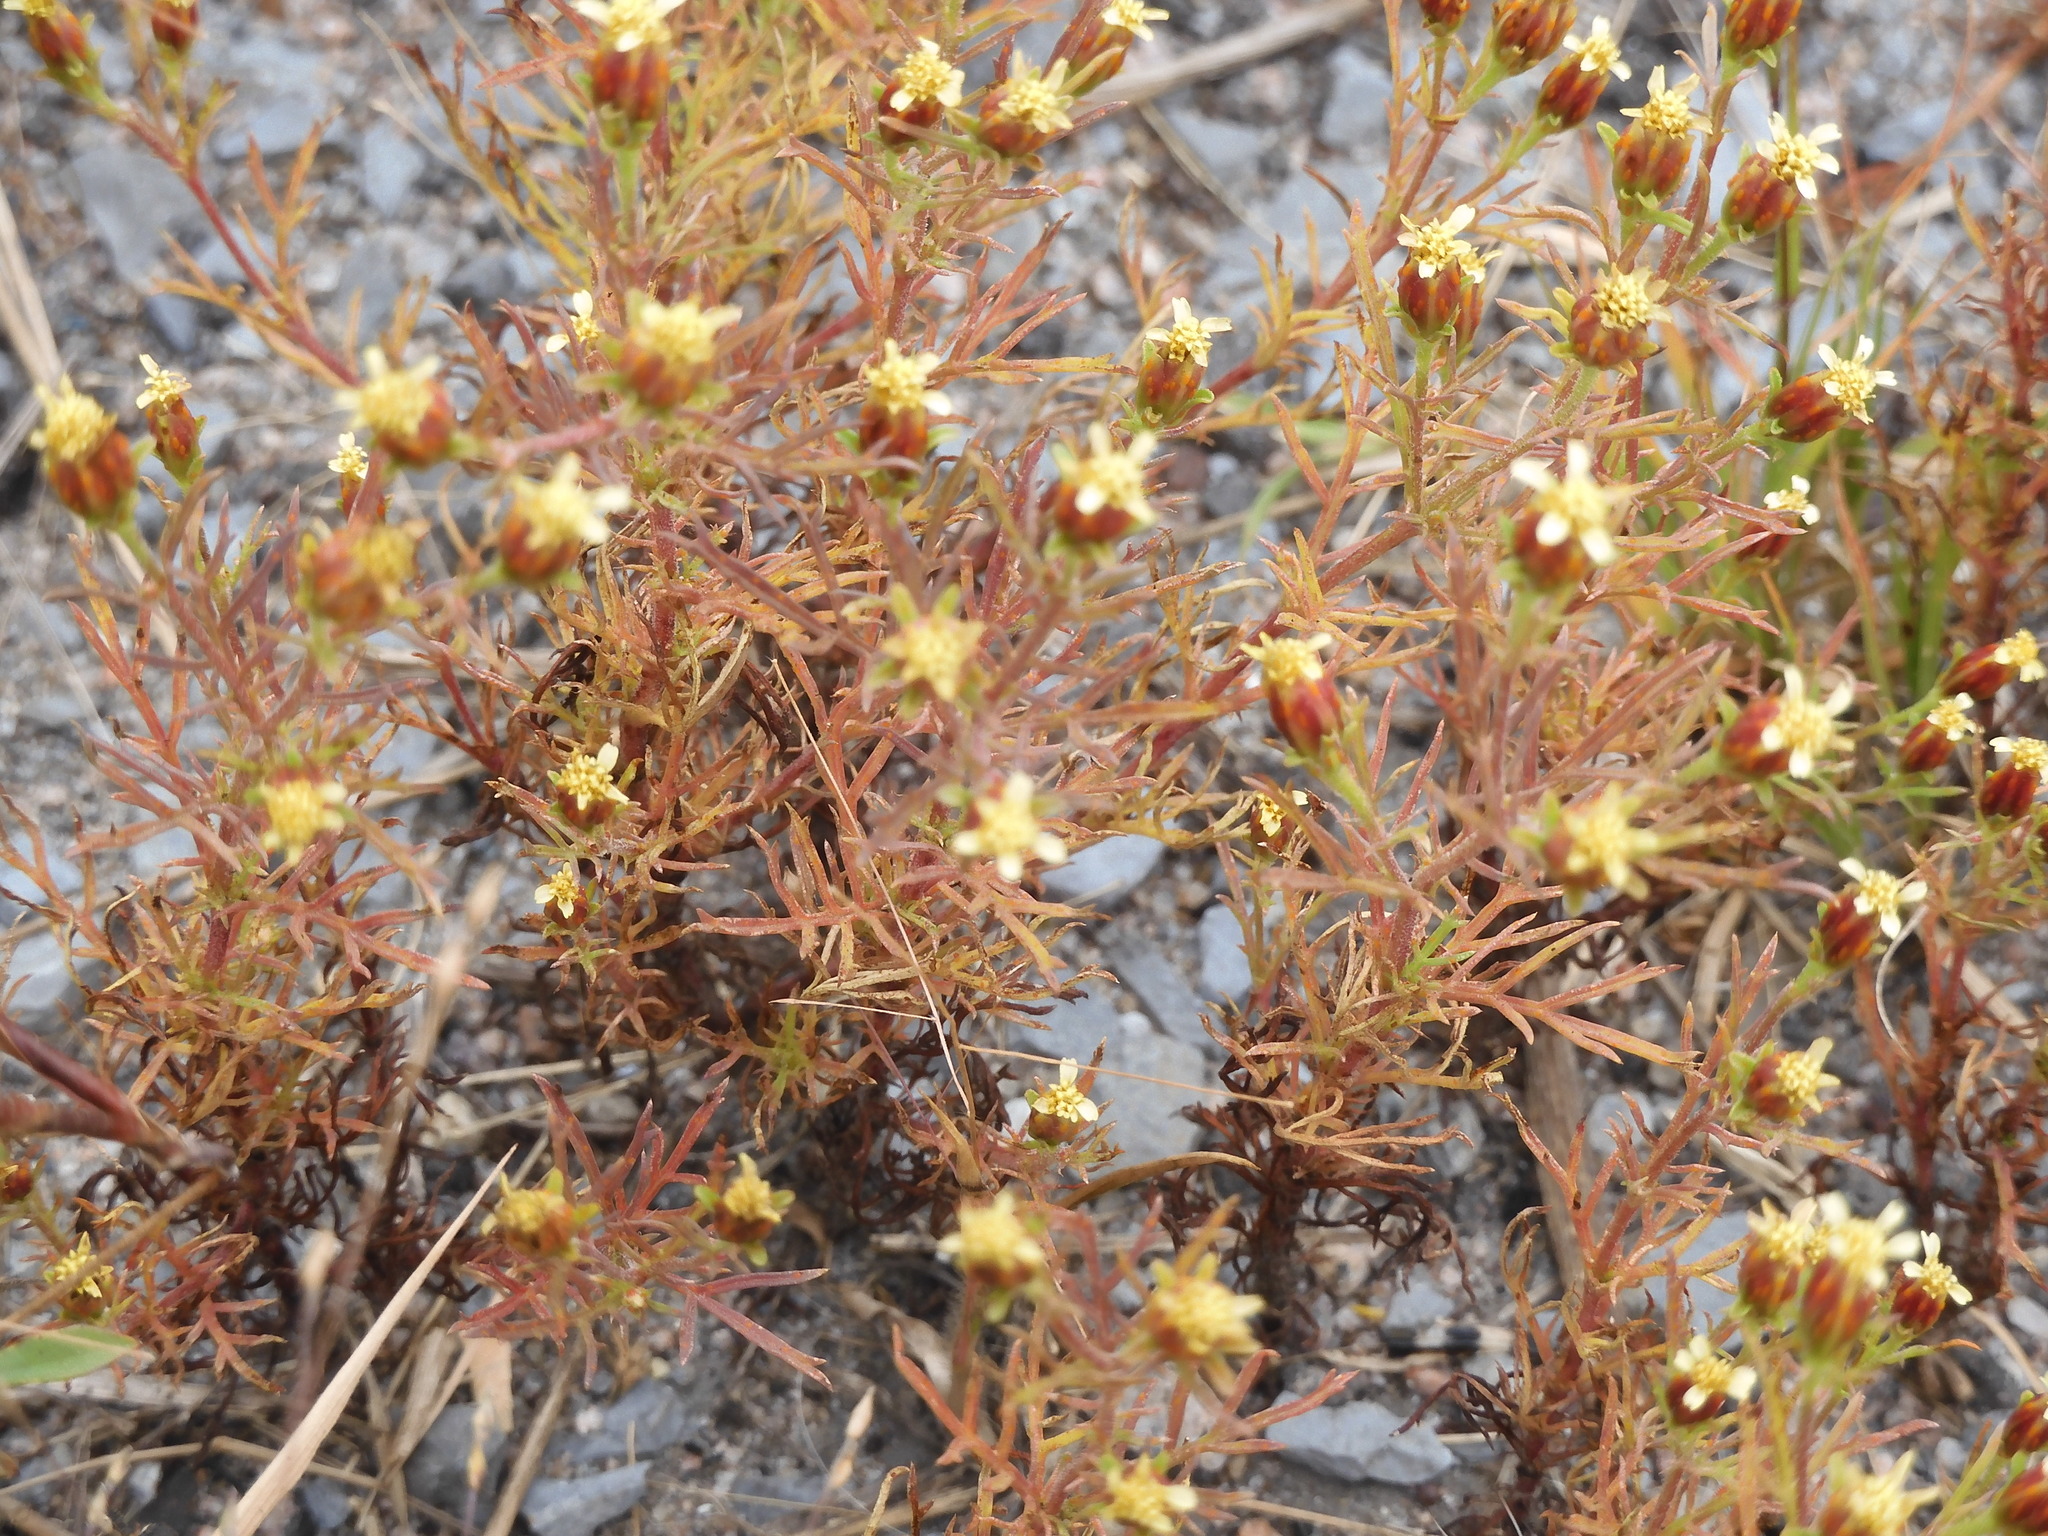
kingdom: Plantae
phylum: Tracheophyta
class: Magnoliopsida
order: Asterales
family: Asteraceae
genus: Dyssodia
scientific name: Dyssodia papposa
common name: Dogweed
